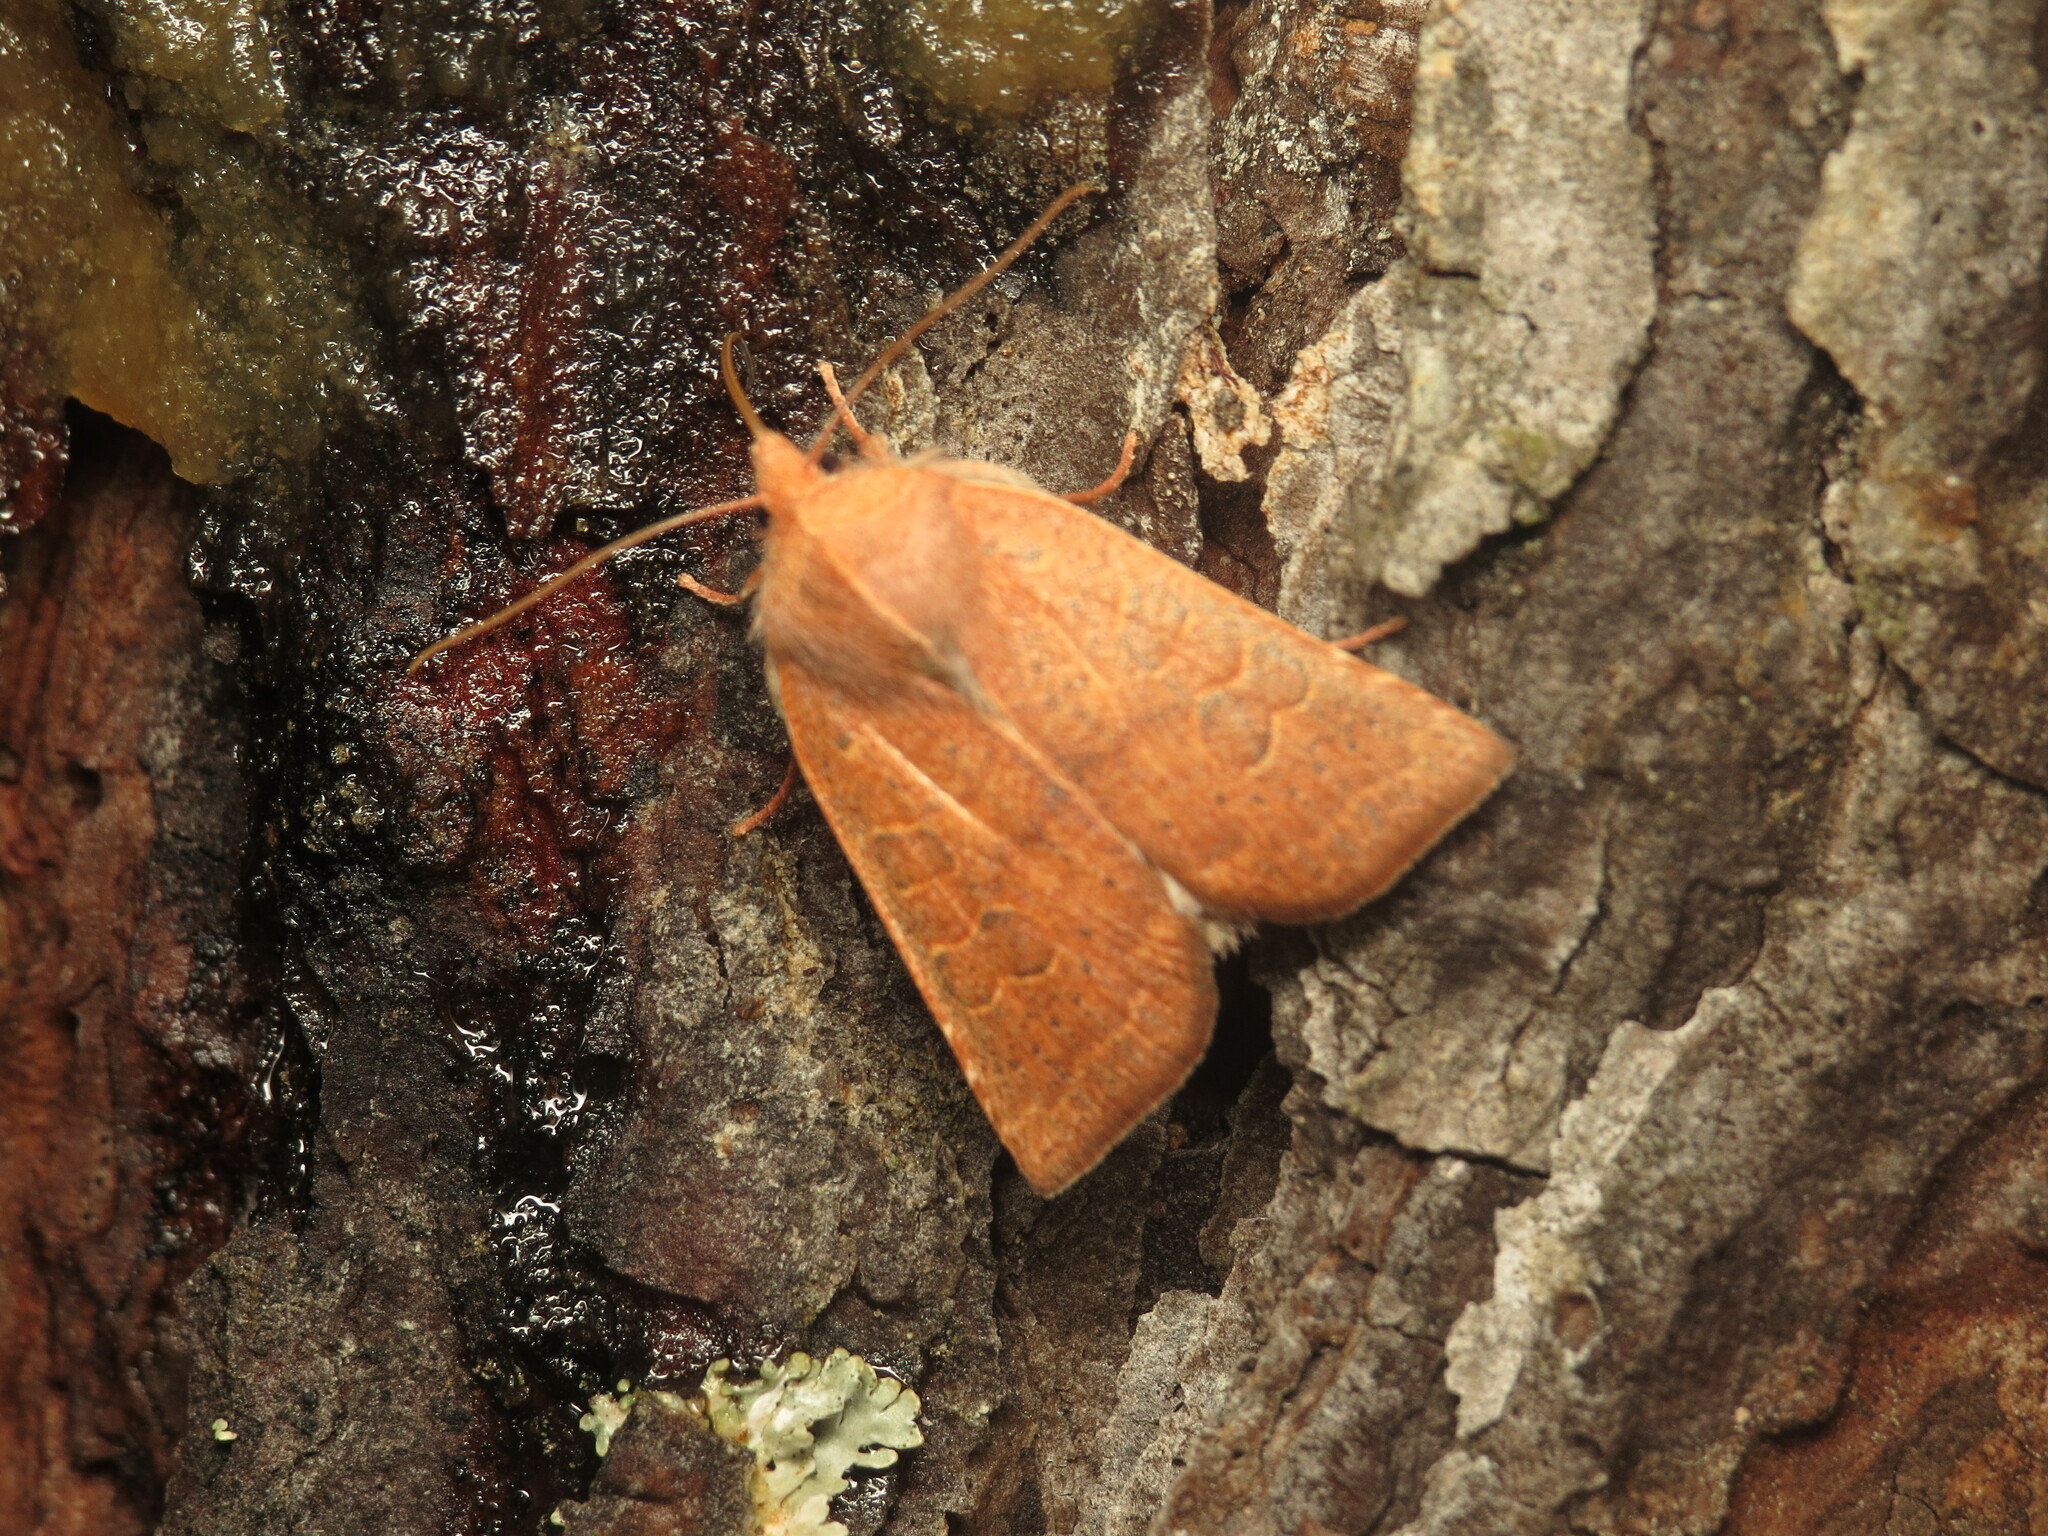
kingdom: Animalia
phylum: Arthropoda
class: Insecta
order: Lepidoptera
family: Noctuidae
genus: Xystopeplus
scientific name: Xystopeplus rufago
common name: Red-winged sallow
